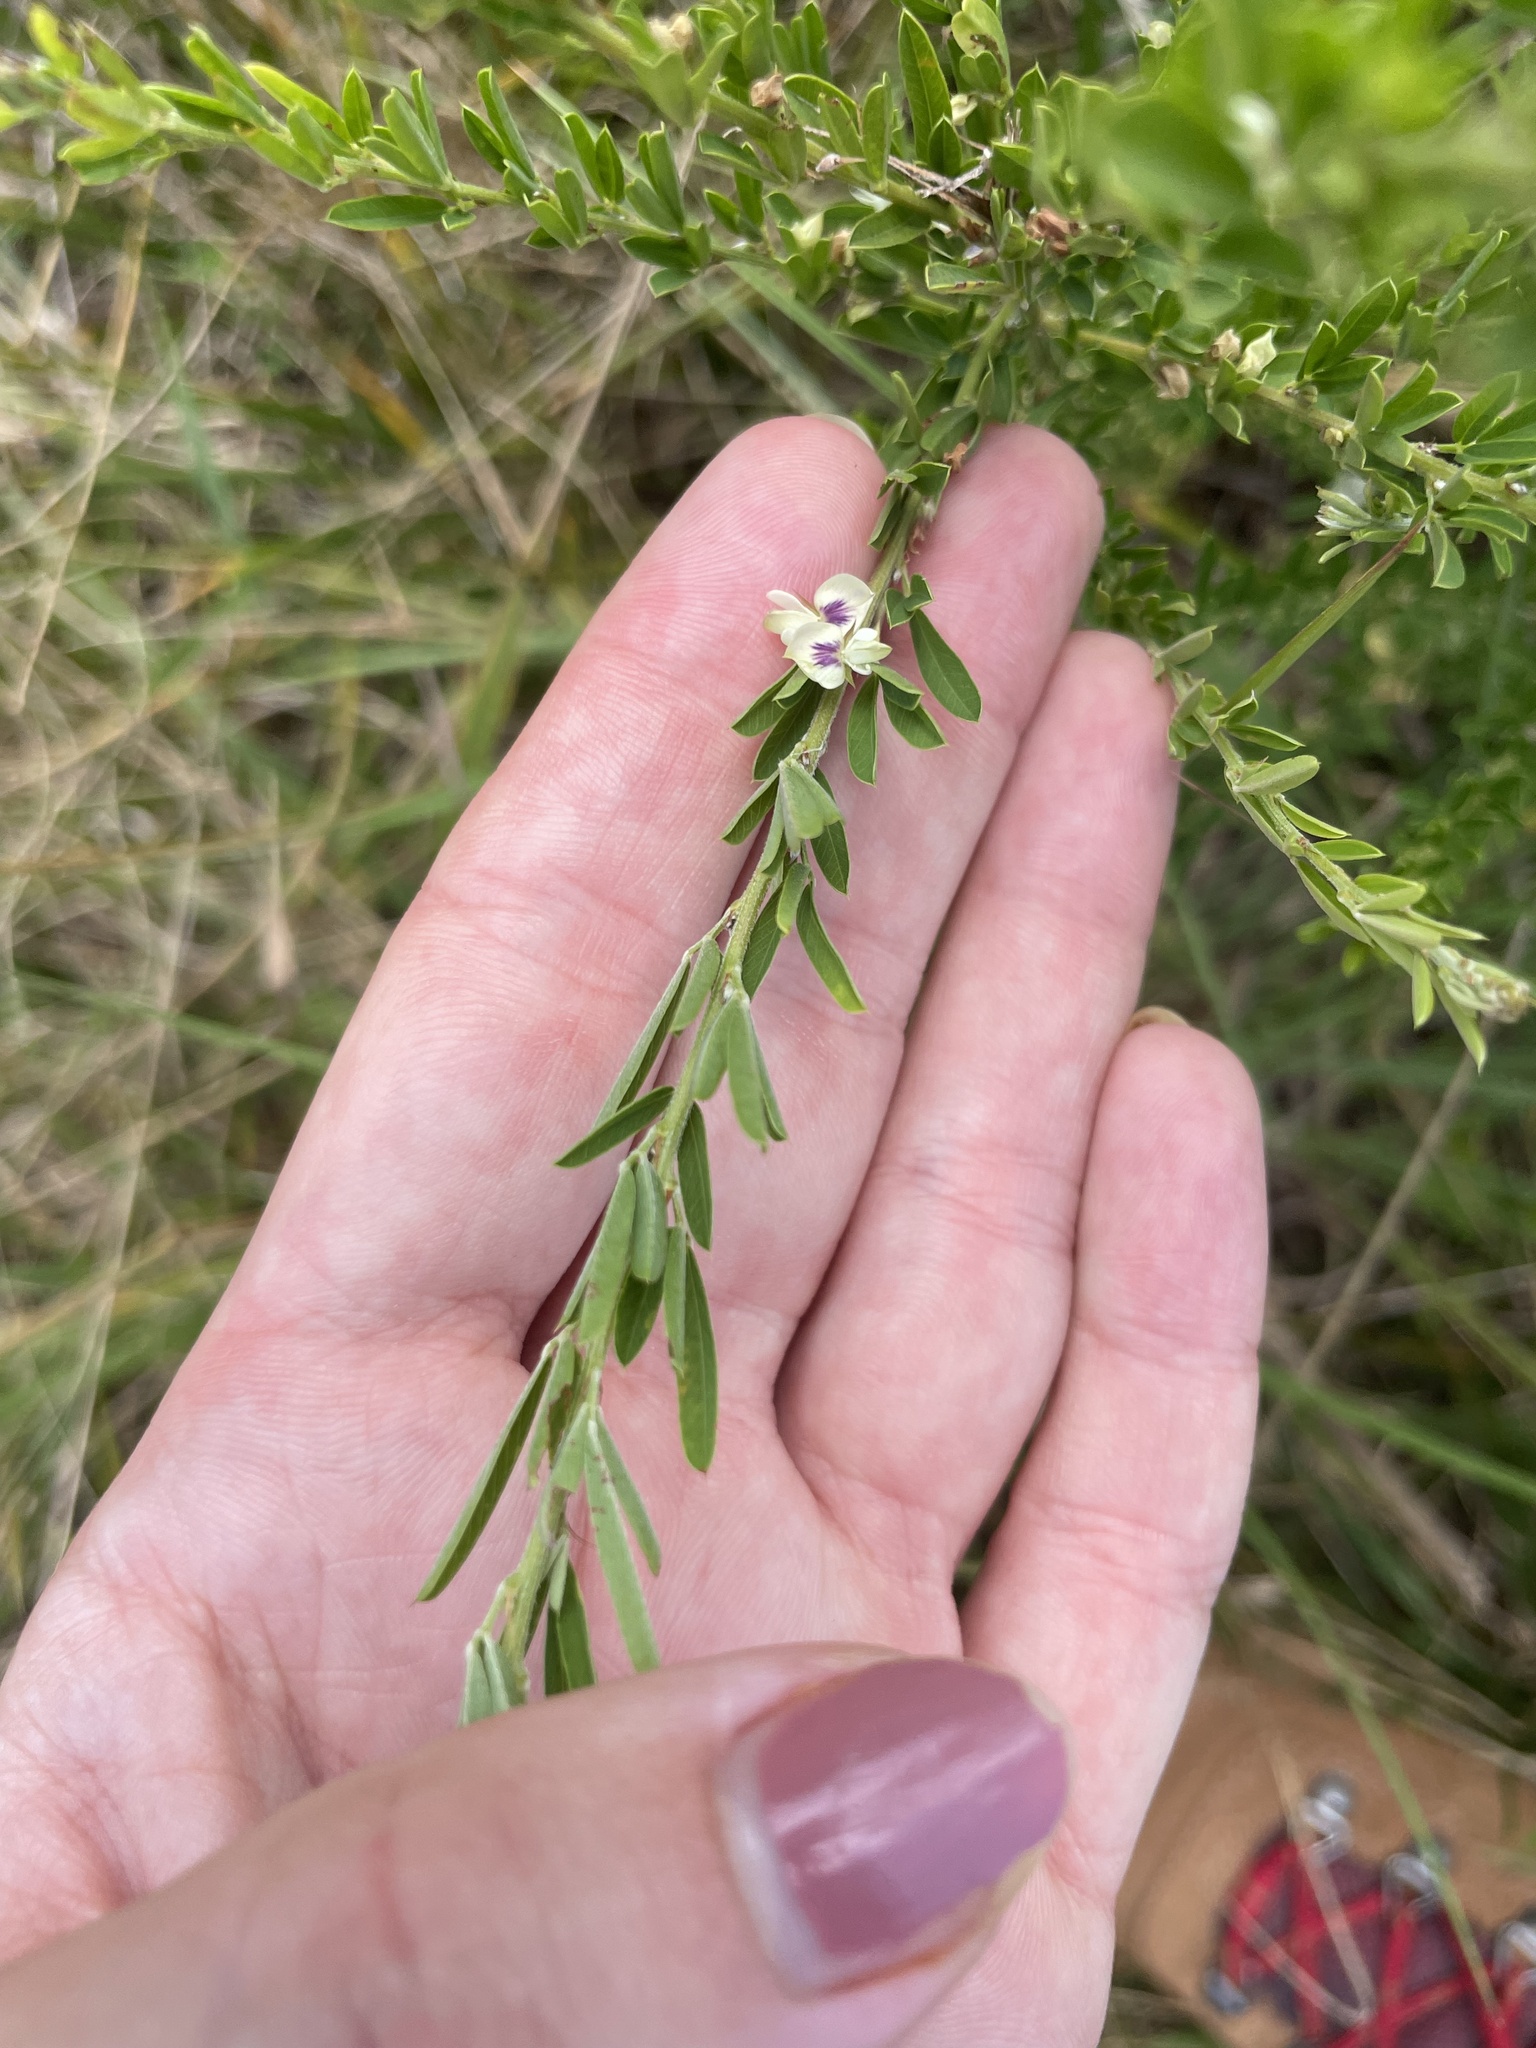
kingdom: Plantae
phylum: Tracheophyta
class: Magnoliopsida
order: Fabales
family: Fabaceae
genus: Lespedeza
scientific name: Lespedeza cuneata
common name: Chinese bush-clover
